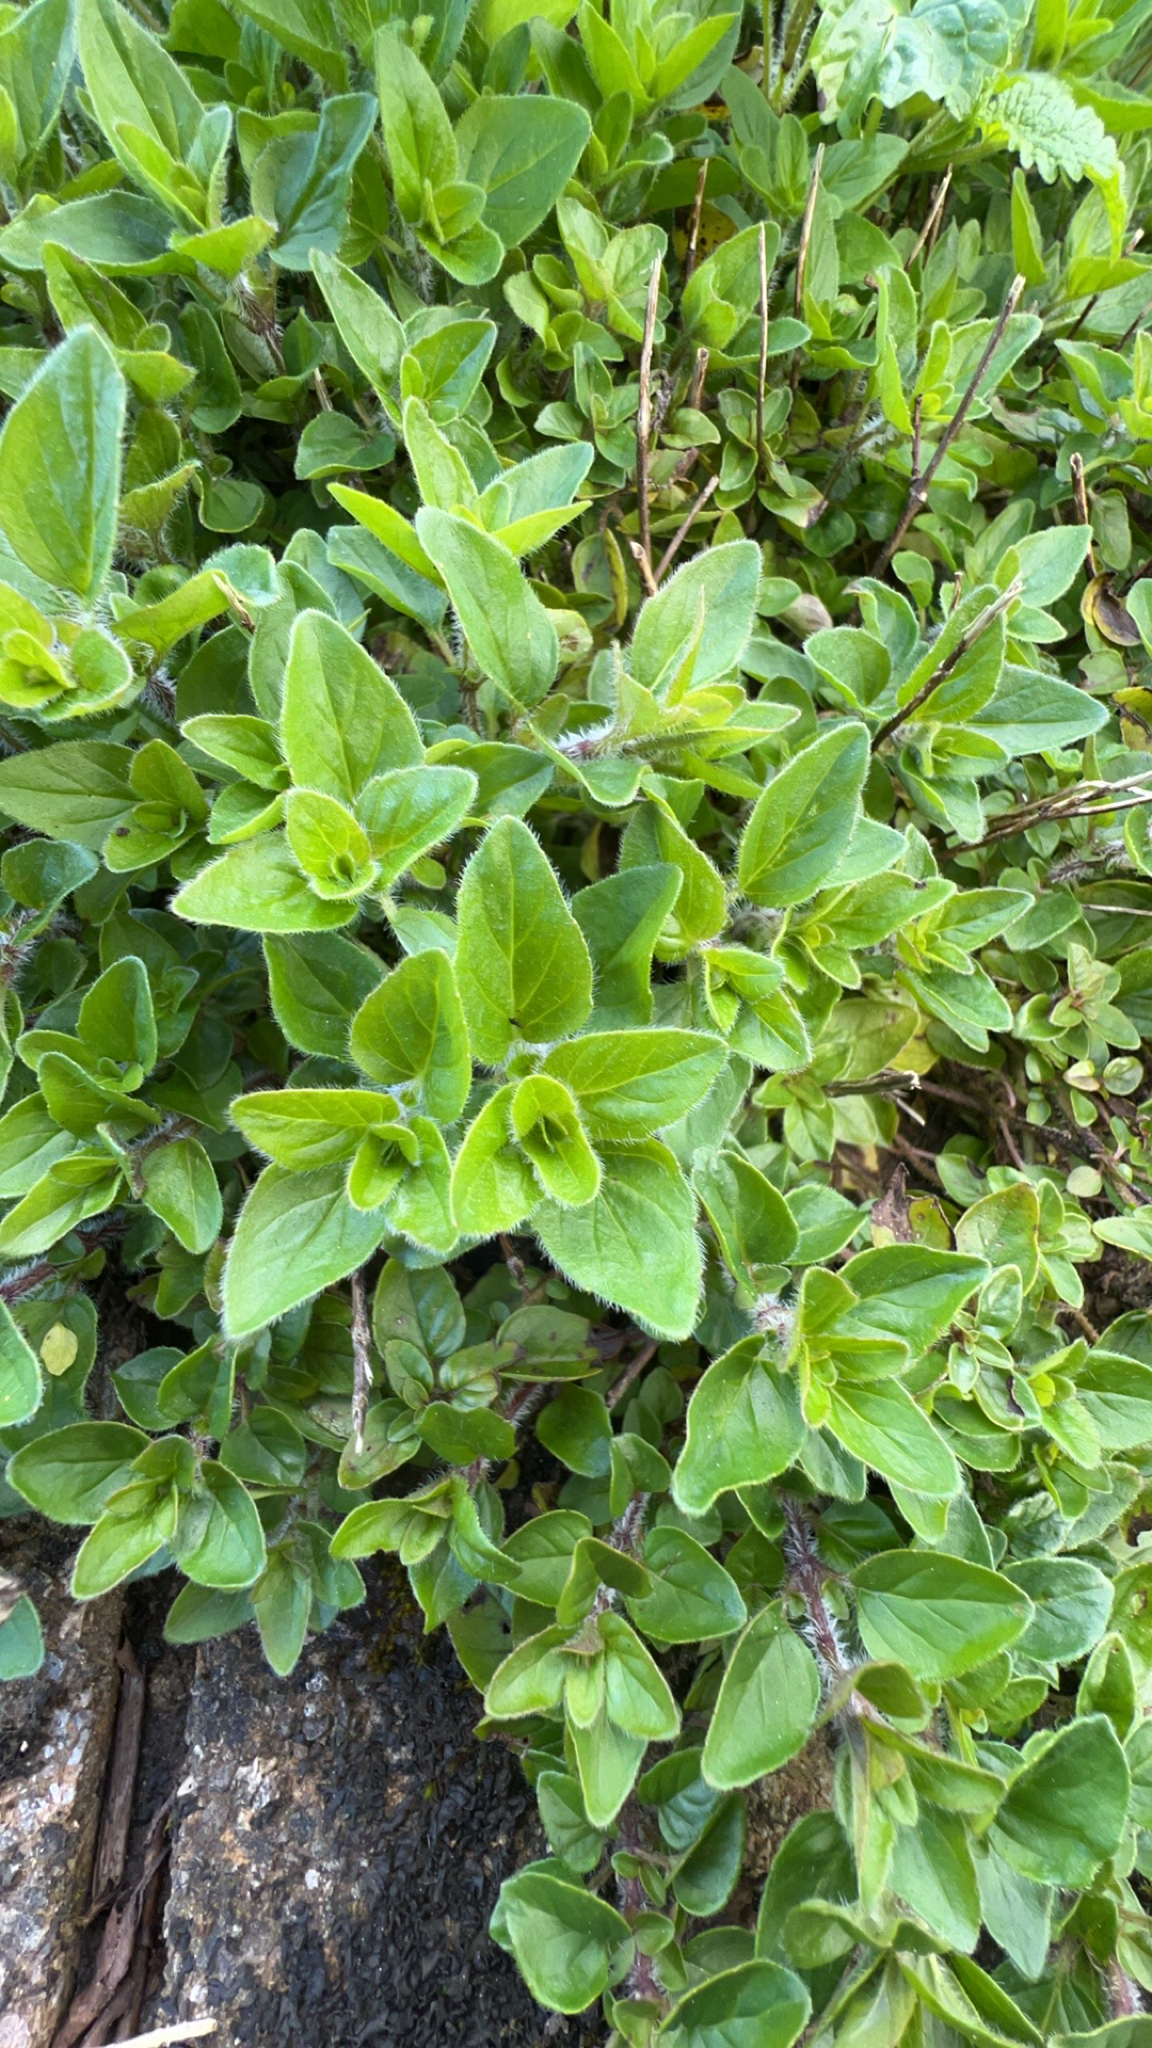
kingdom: Plantae
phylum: Tracheophyta
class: Magnoliopsida
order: Lamiales
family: Lamiaceae
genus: Origanum
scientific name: Origanum vulgare
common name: Wild marjoram
